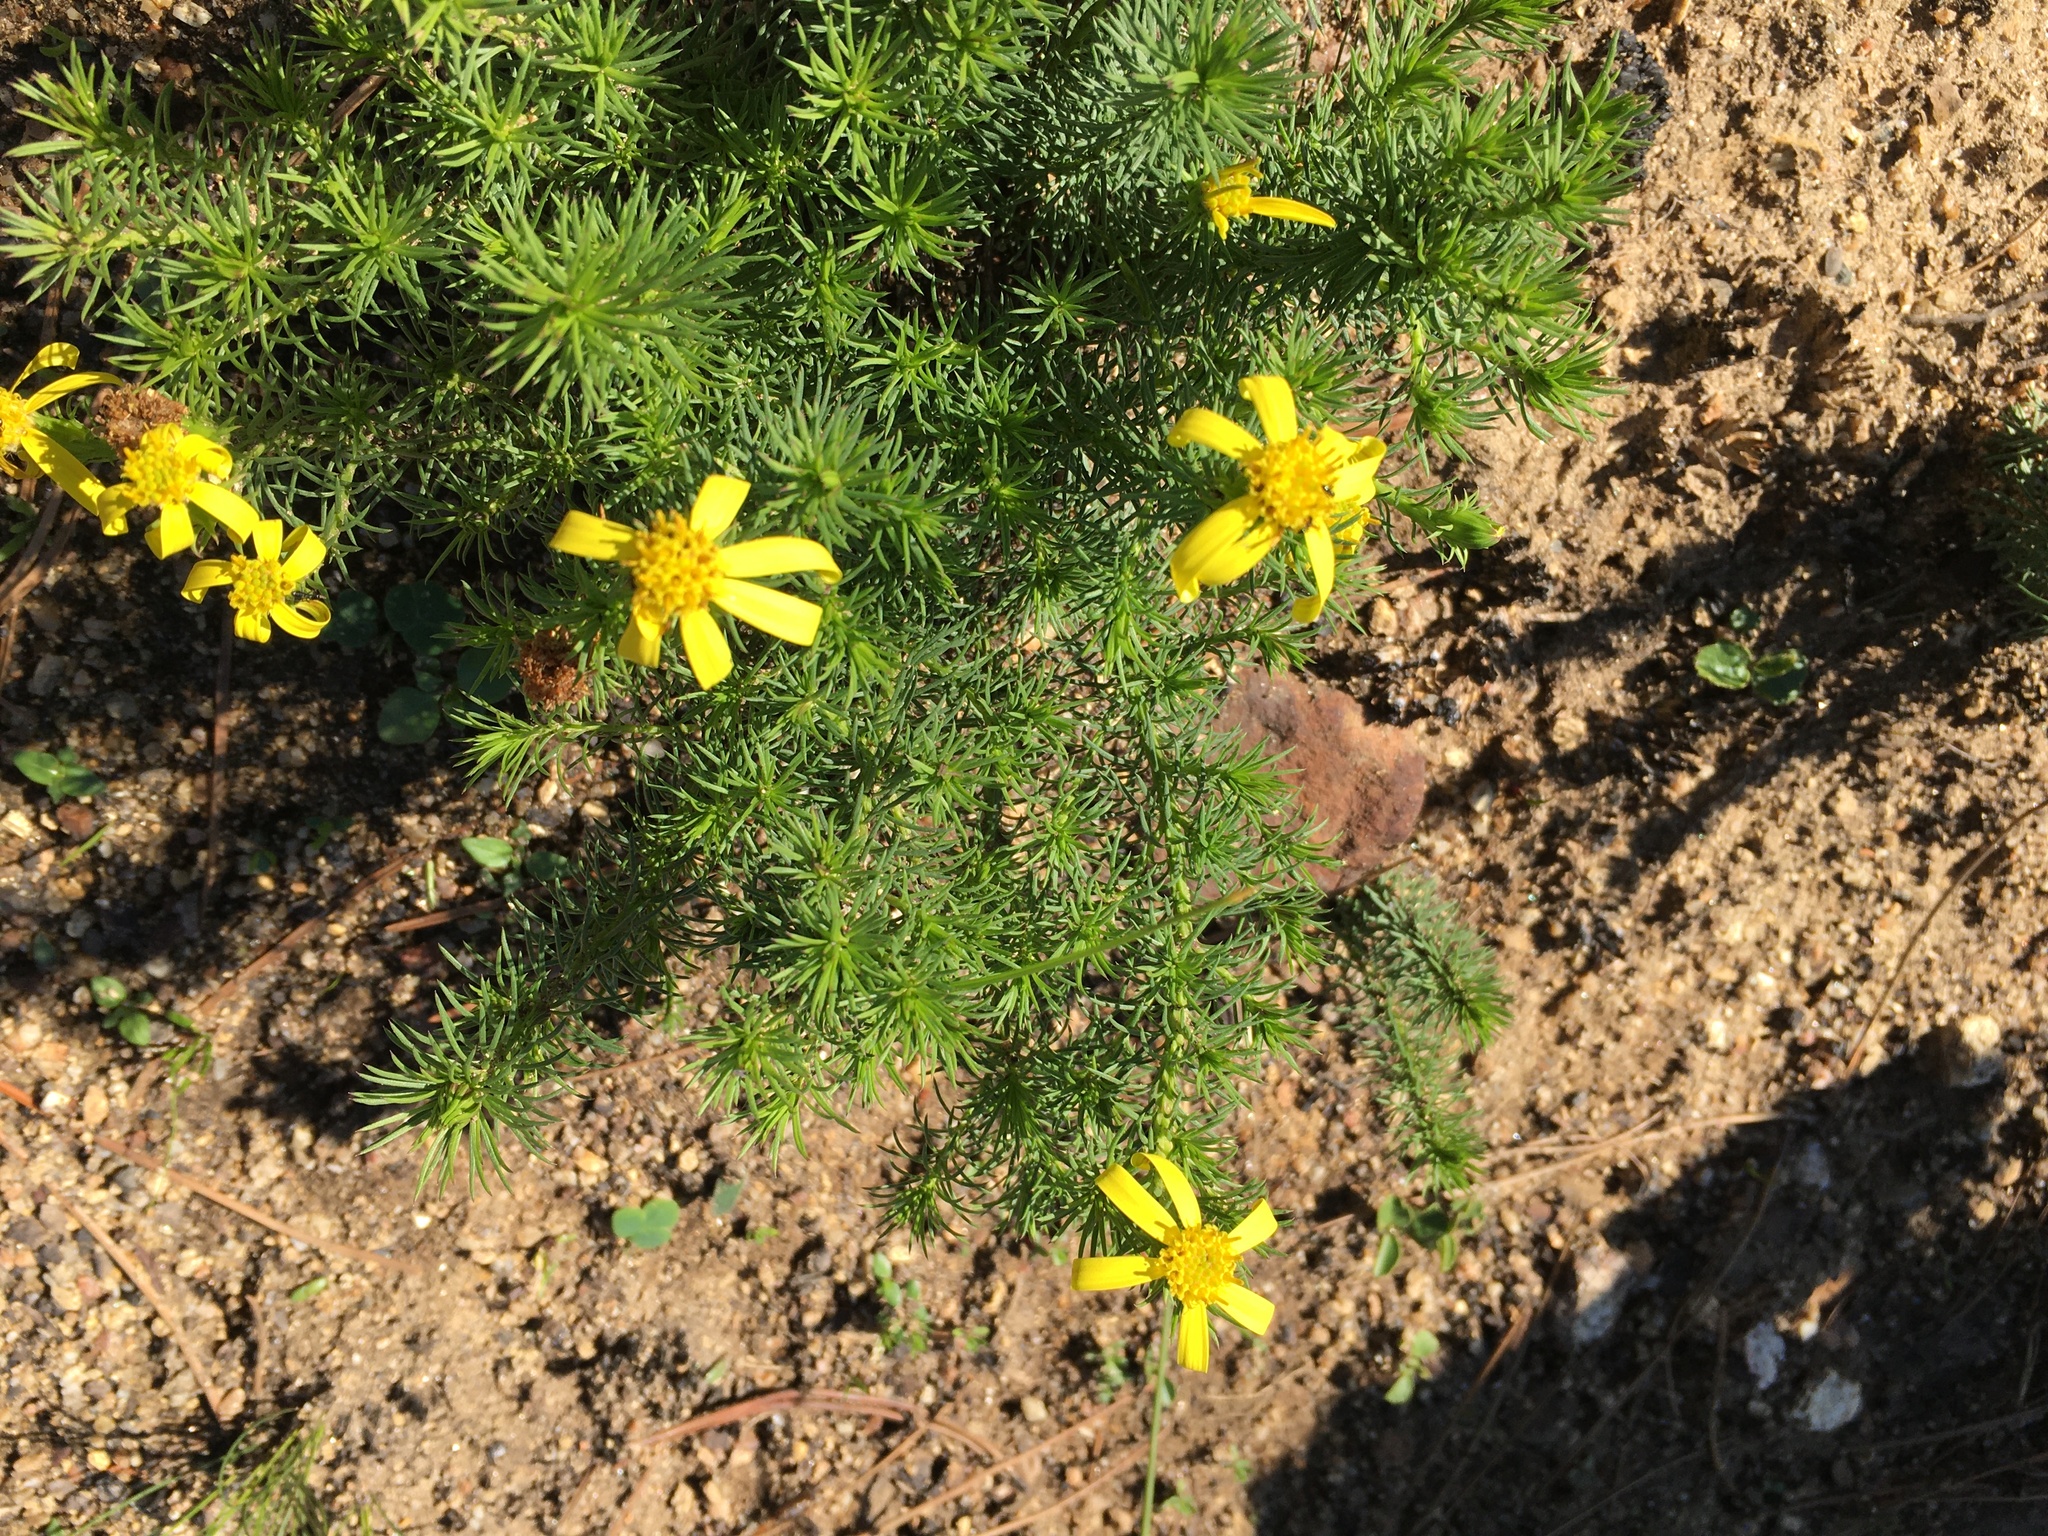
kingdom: Plantae
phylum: Tracheophyta
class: Magnoliopsida
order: Asterales
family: Asteraceae
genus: Senecio
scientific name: Senecio pinifolius
